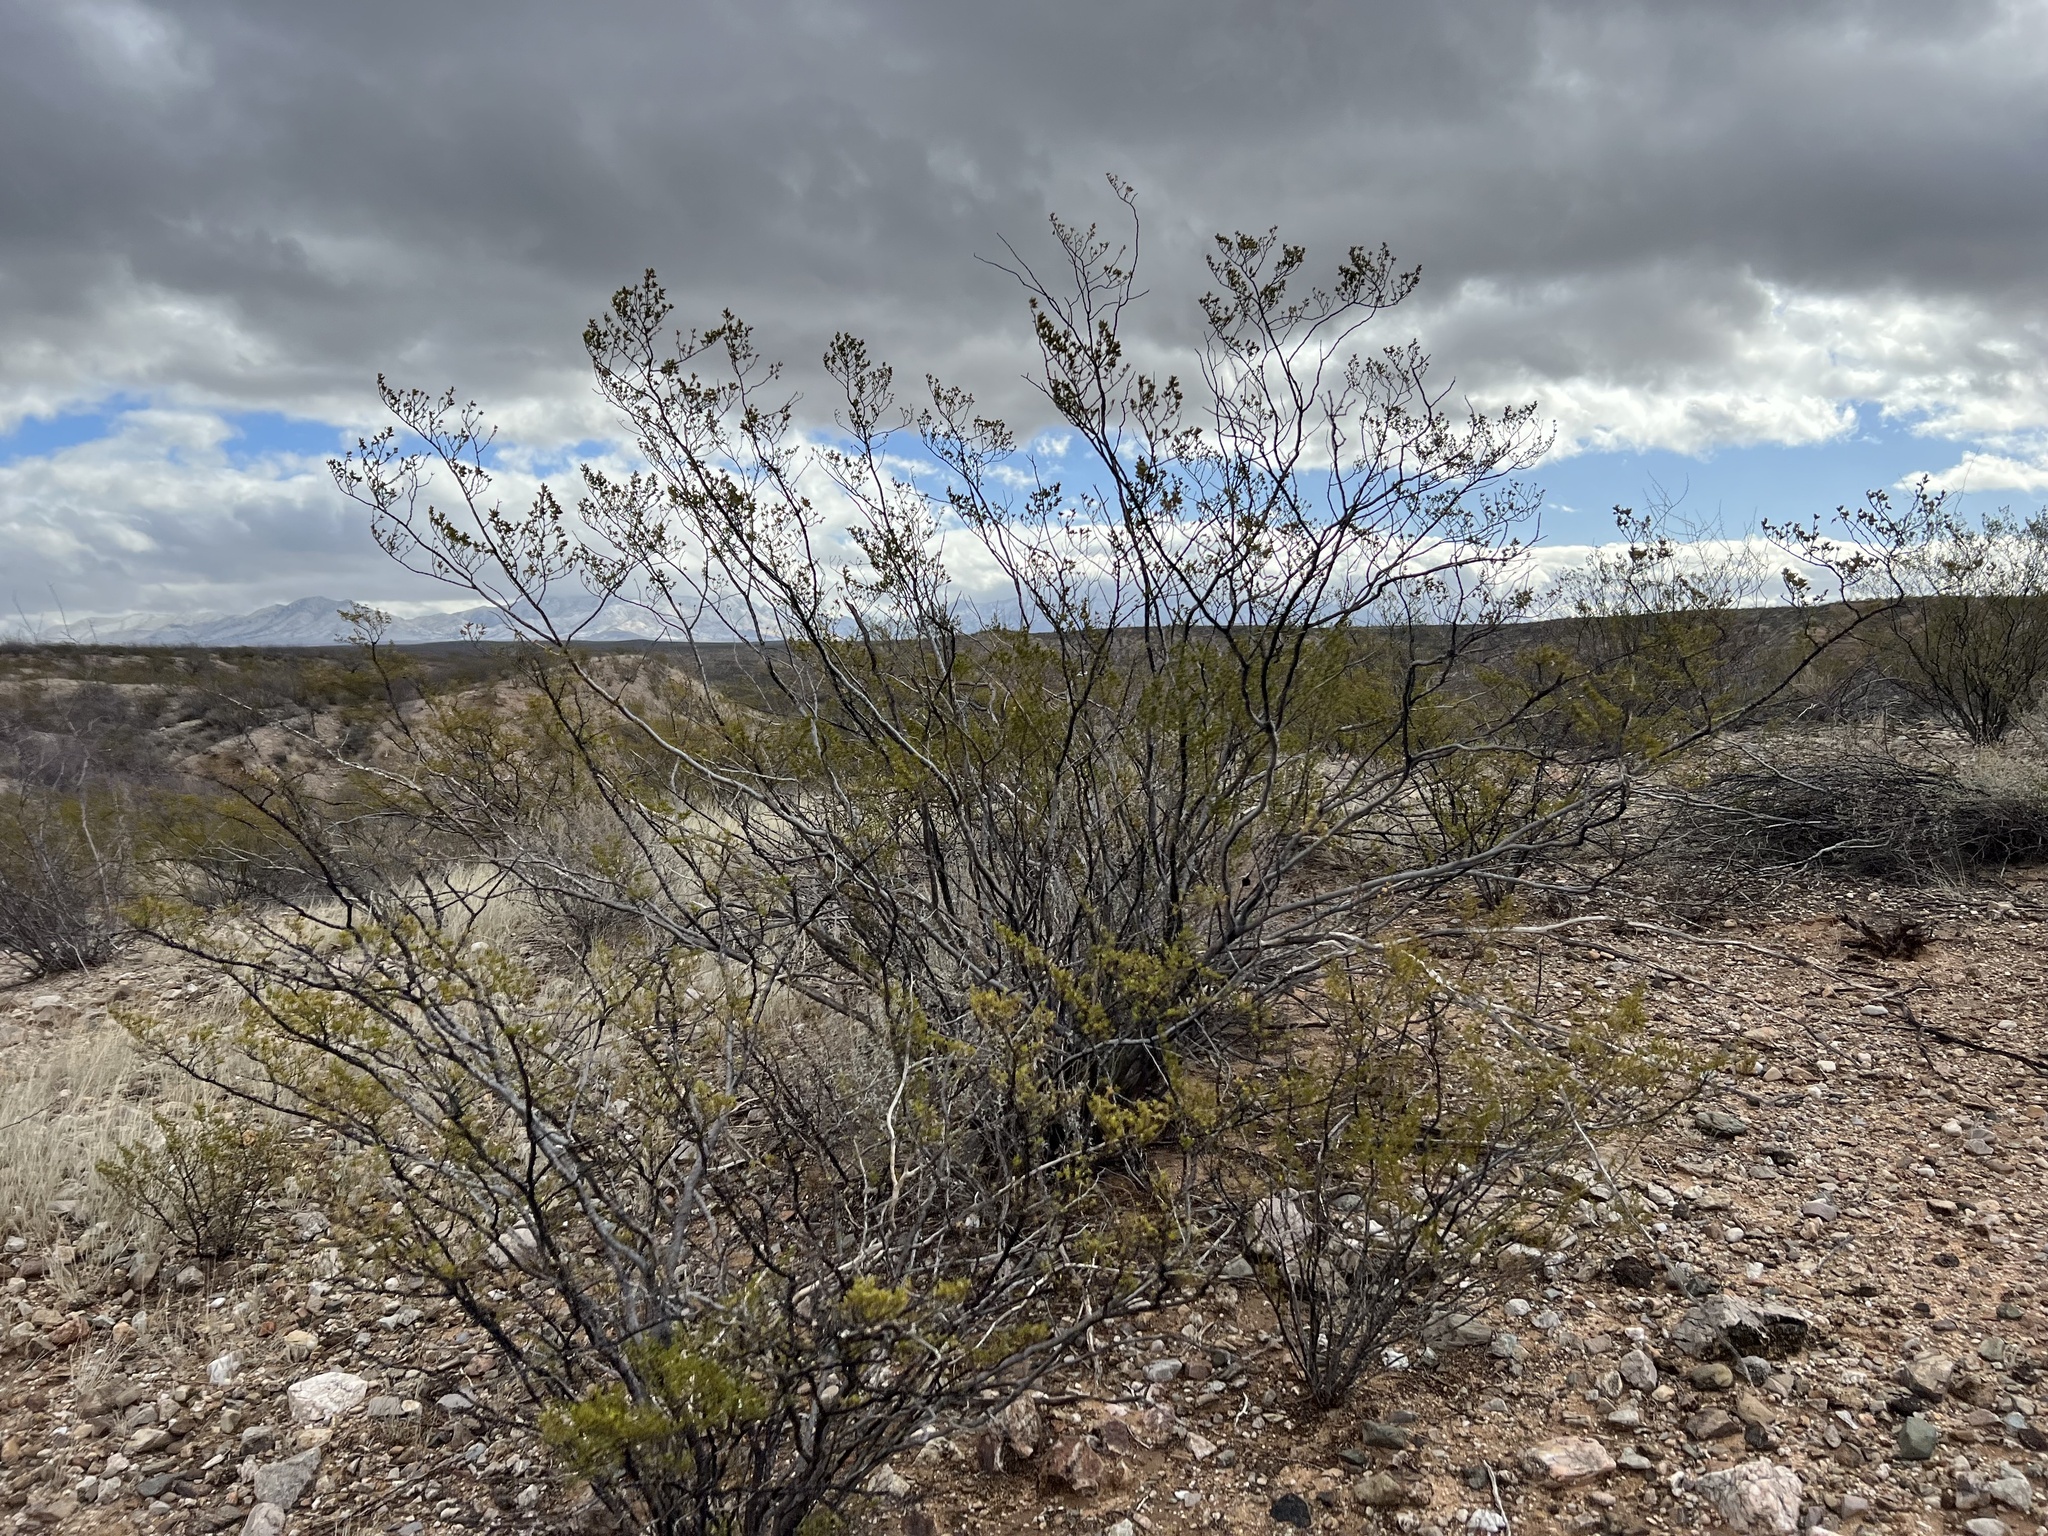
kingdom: Plantae
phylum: Tracheophyta
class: Magnoliopsida
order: Zygophyllales
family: Zygophyllaceae
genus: Larrea
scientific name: Larrea tridentata
